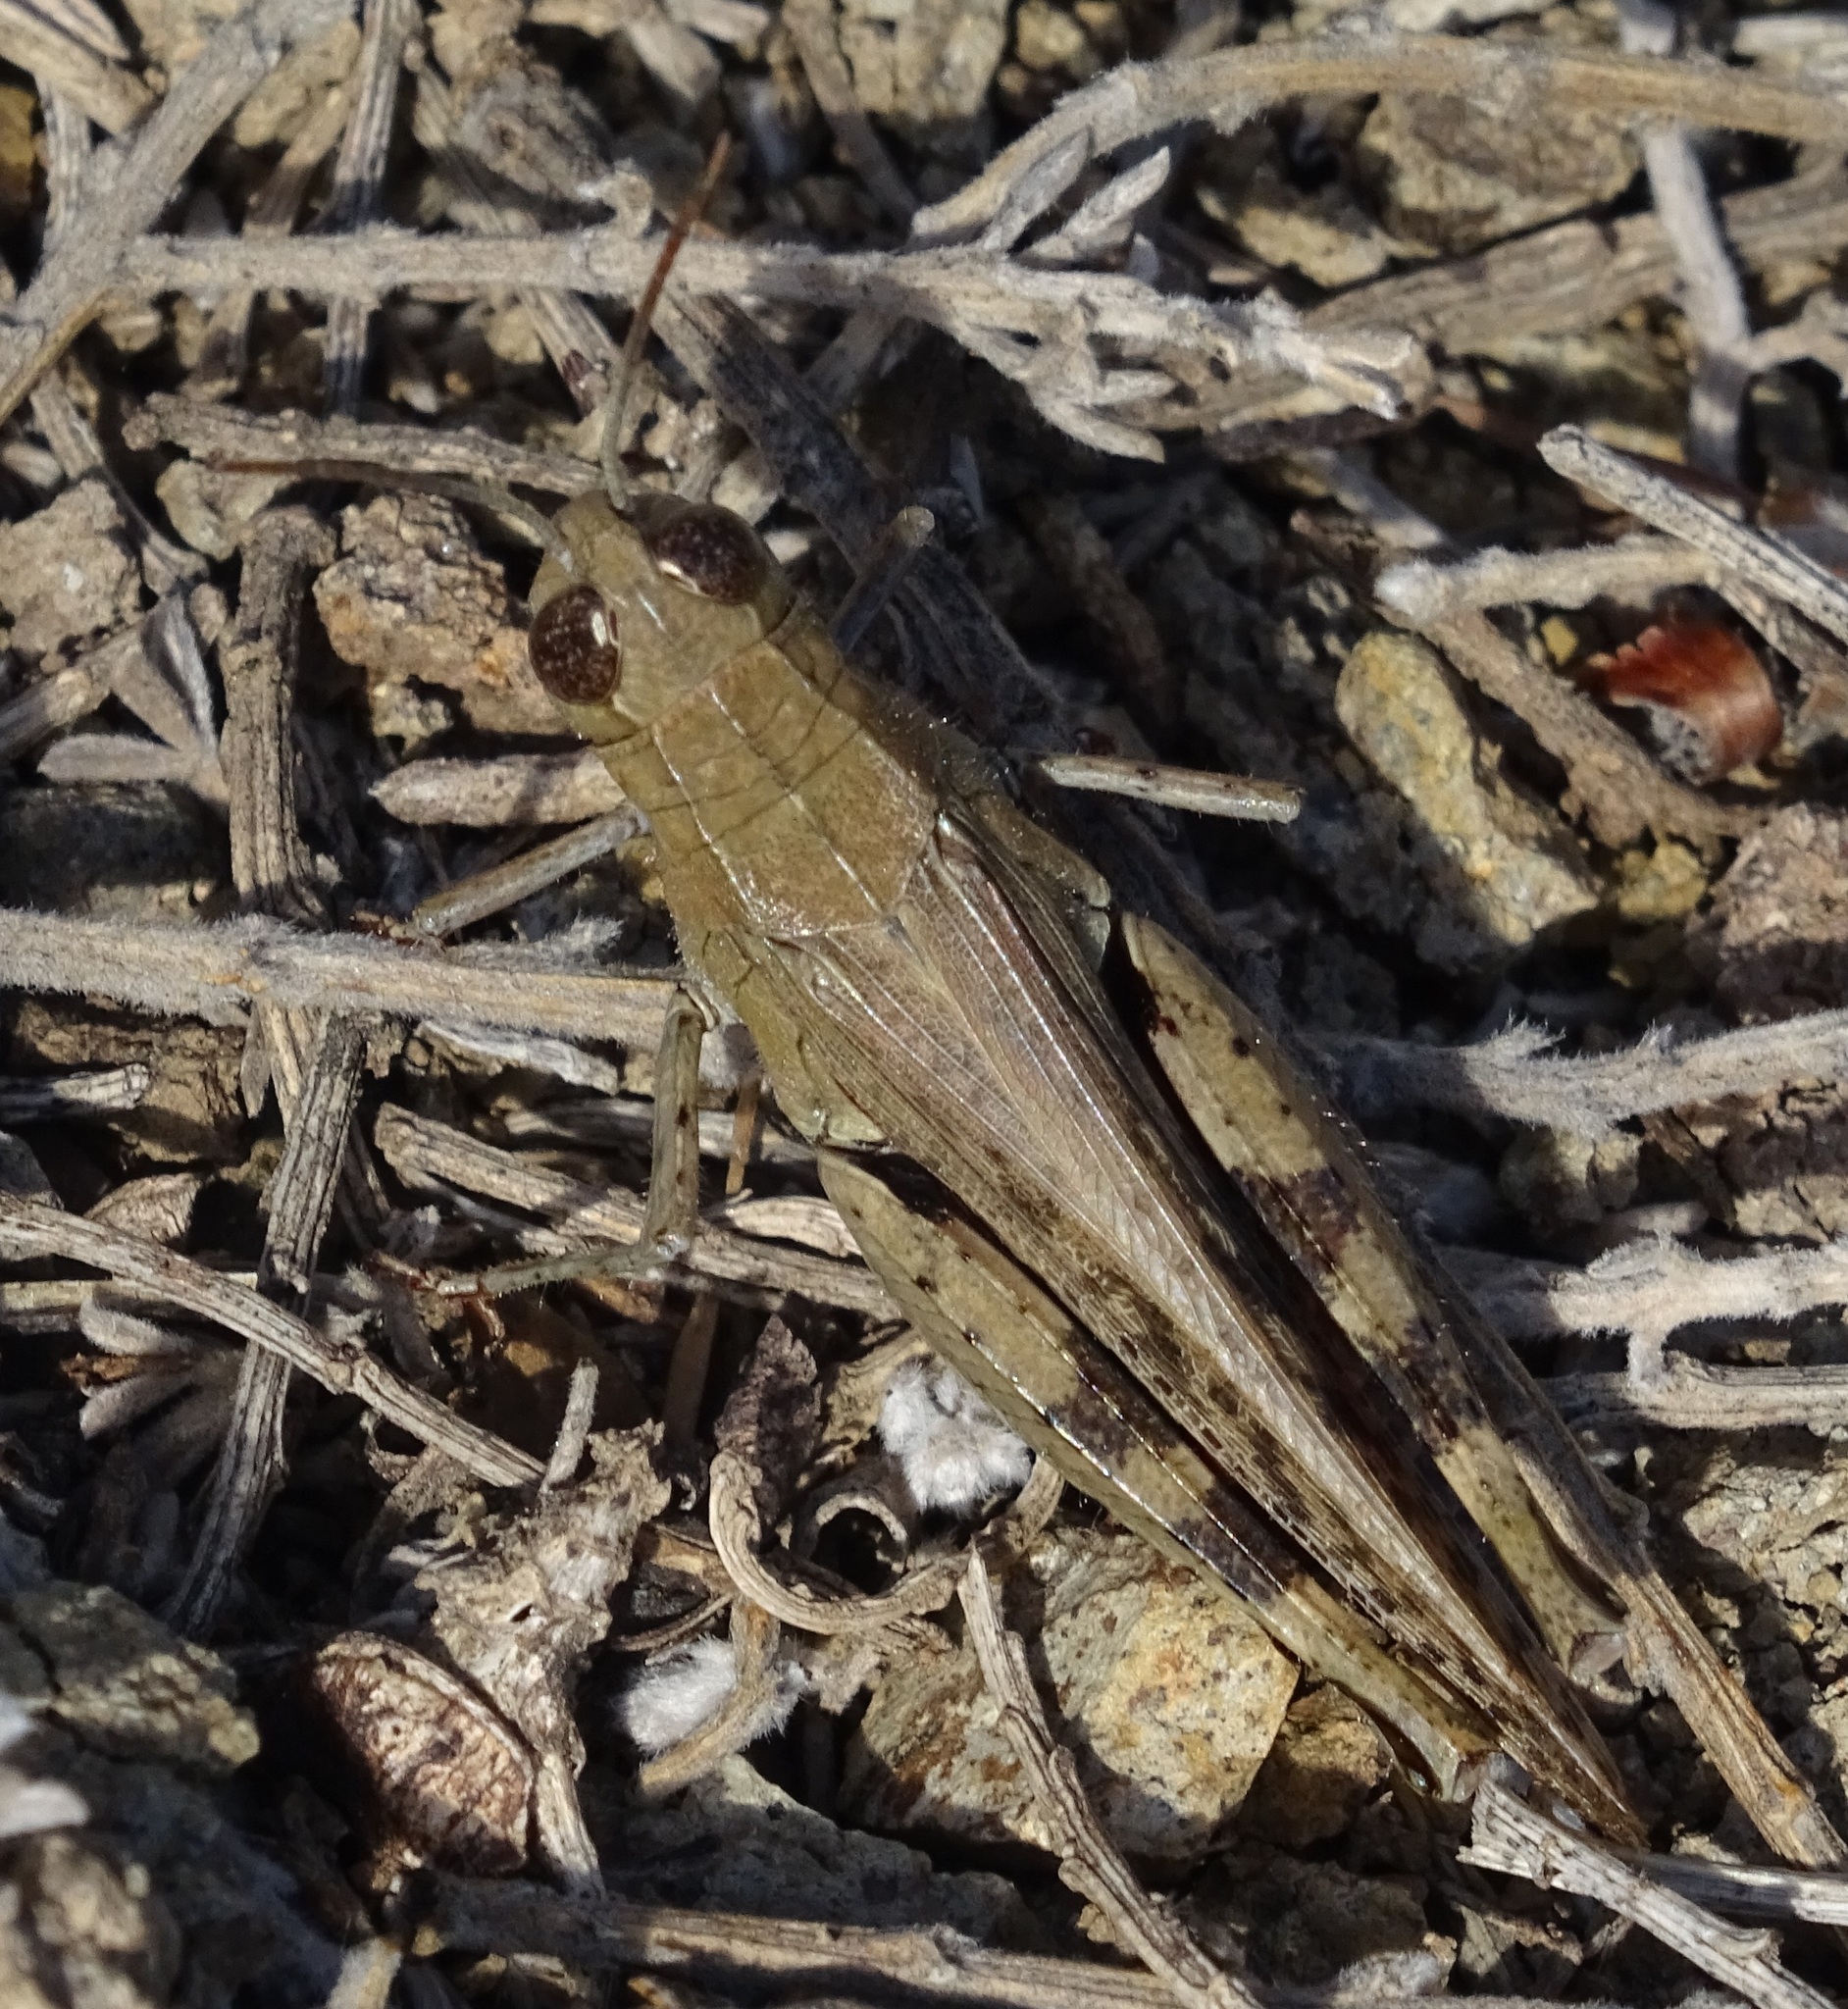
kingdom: Animalia
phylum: Arthropoda
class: Insecta
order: Orthoptera
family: Acrididae
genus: Calliptamus
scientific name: Calliptamus plebeius
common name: Canarian pincer grasshopper
